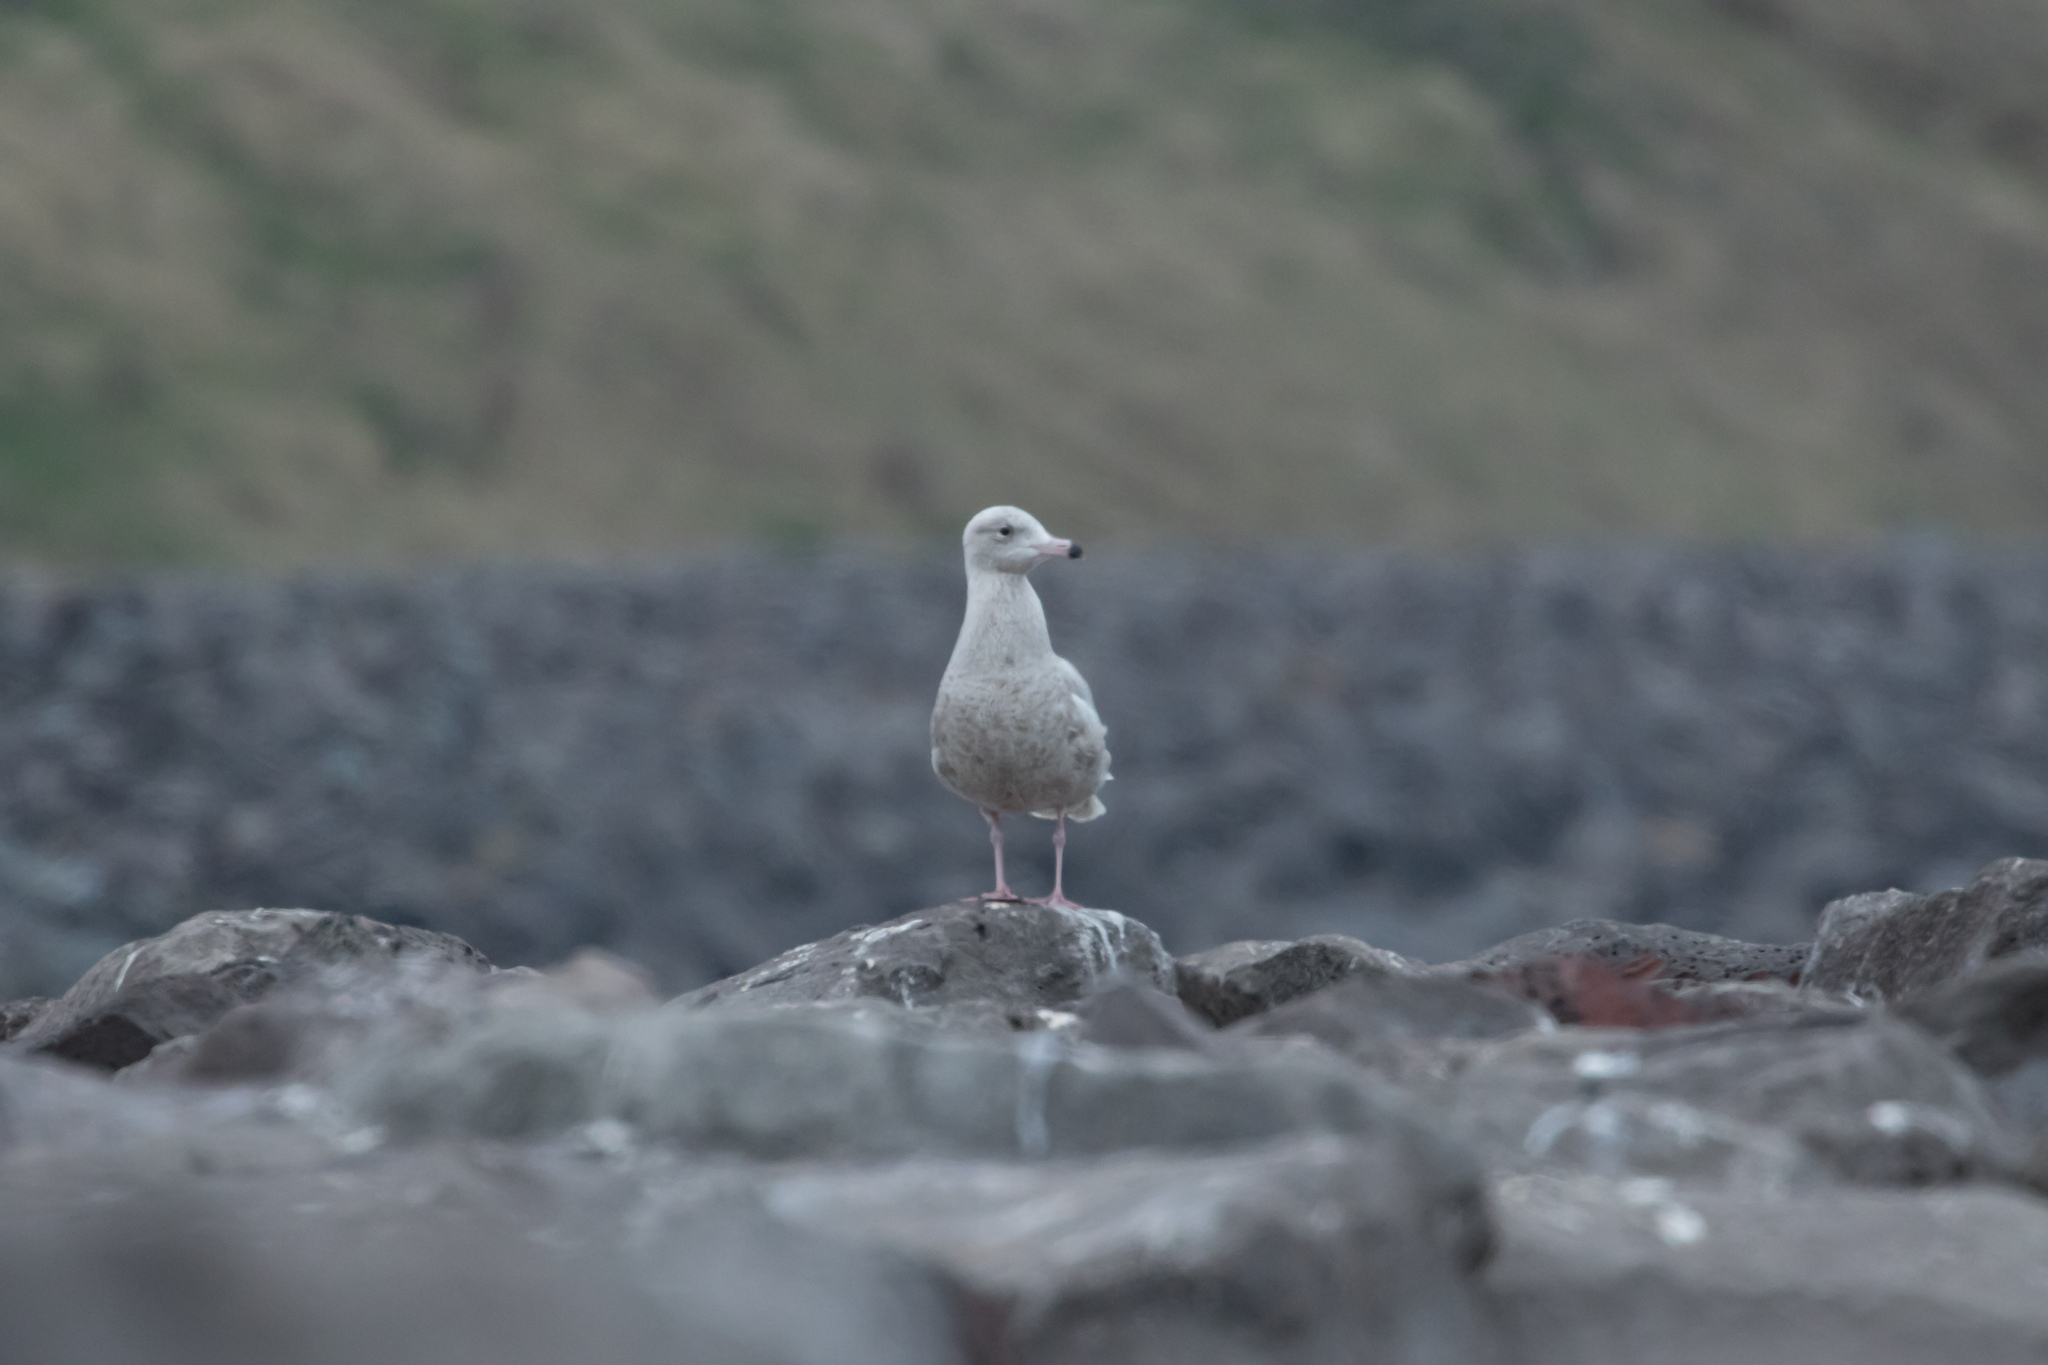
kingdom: Animalia
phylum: Chordata
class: Aves
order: Charadriiformes
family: Laridae
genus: Larus
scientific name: Larus hyperboreus
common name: Glaucous gull
